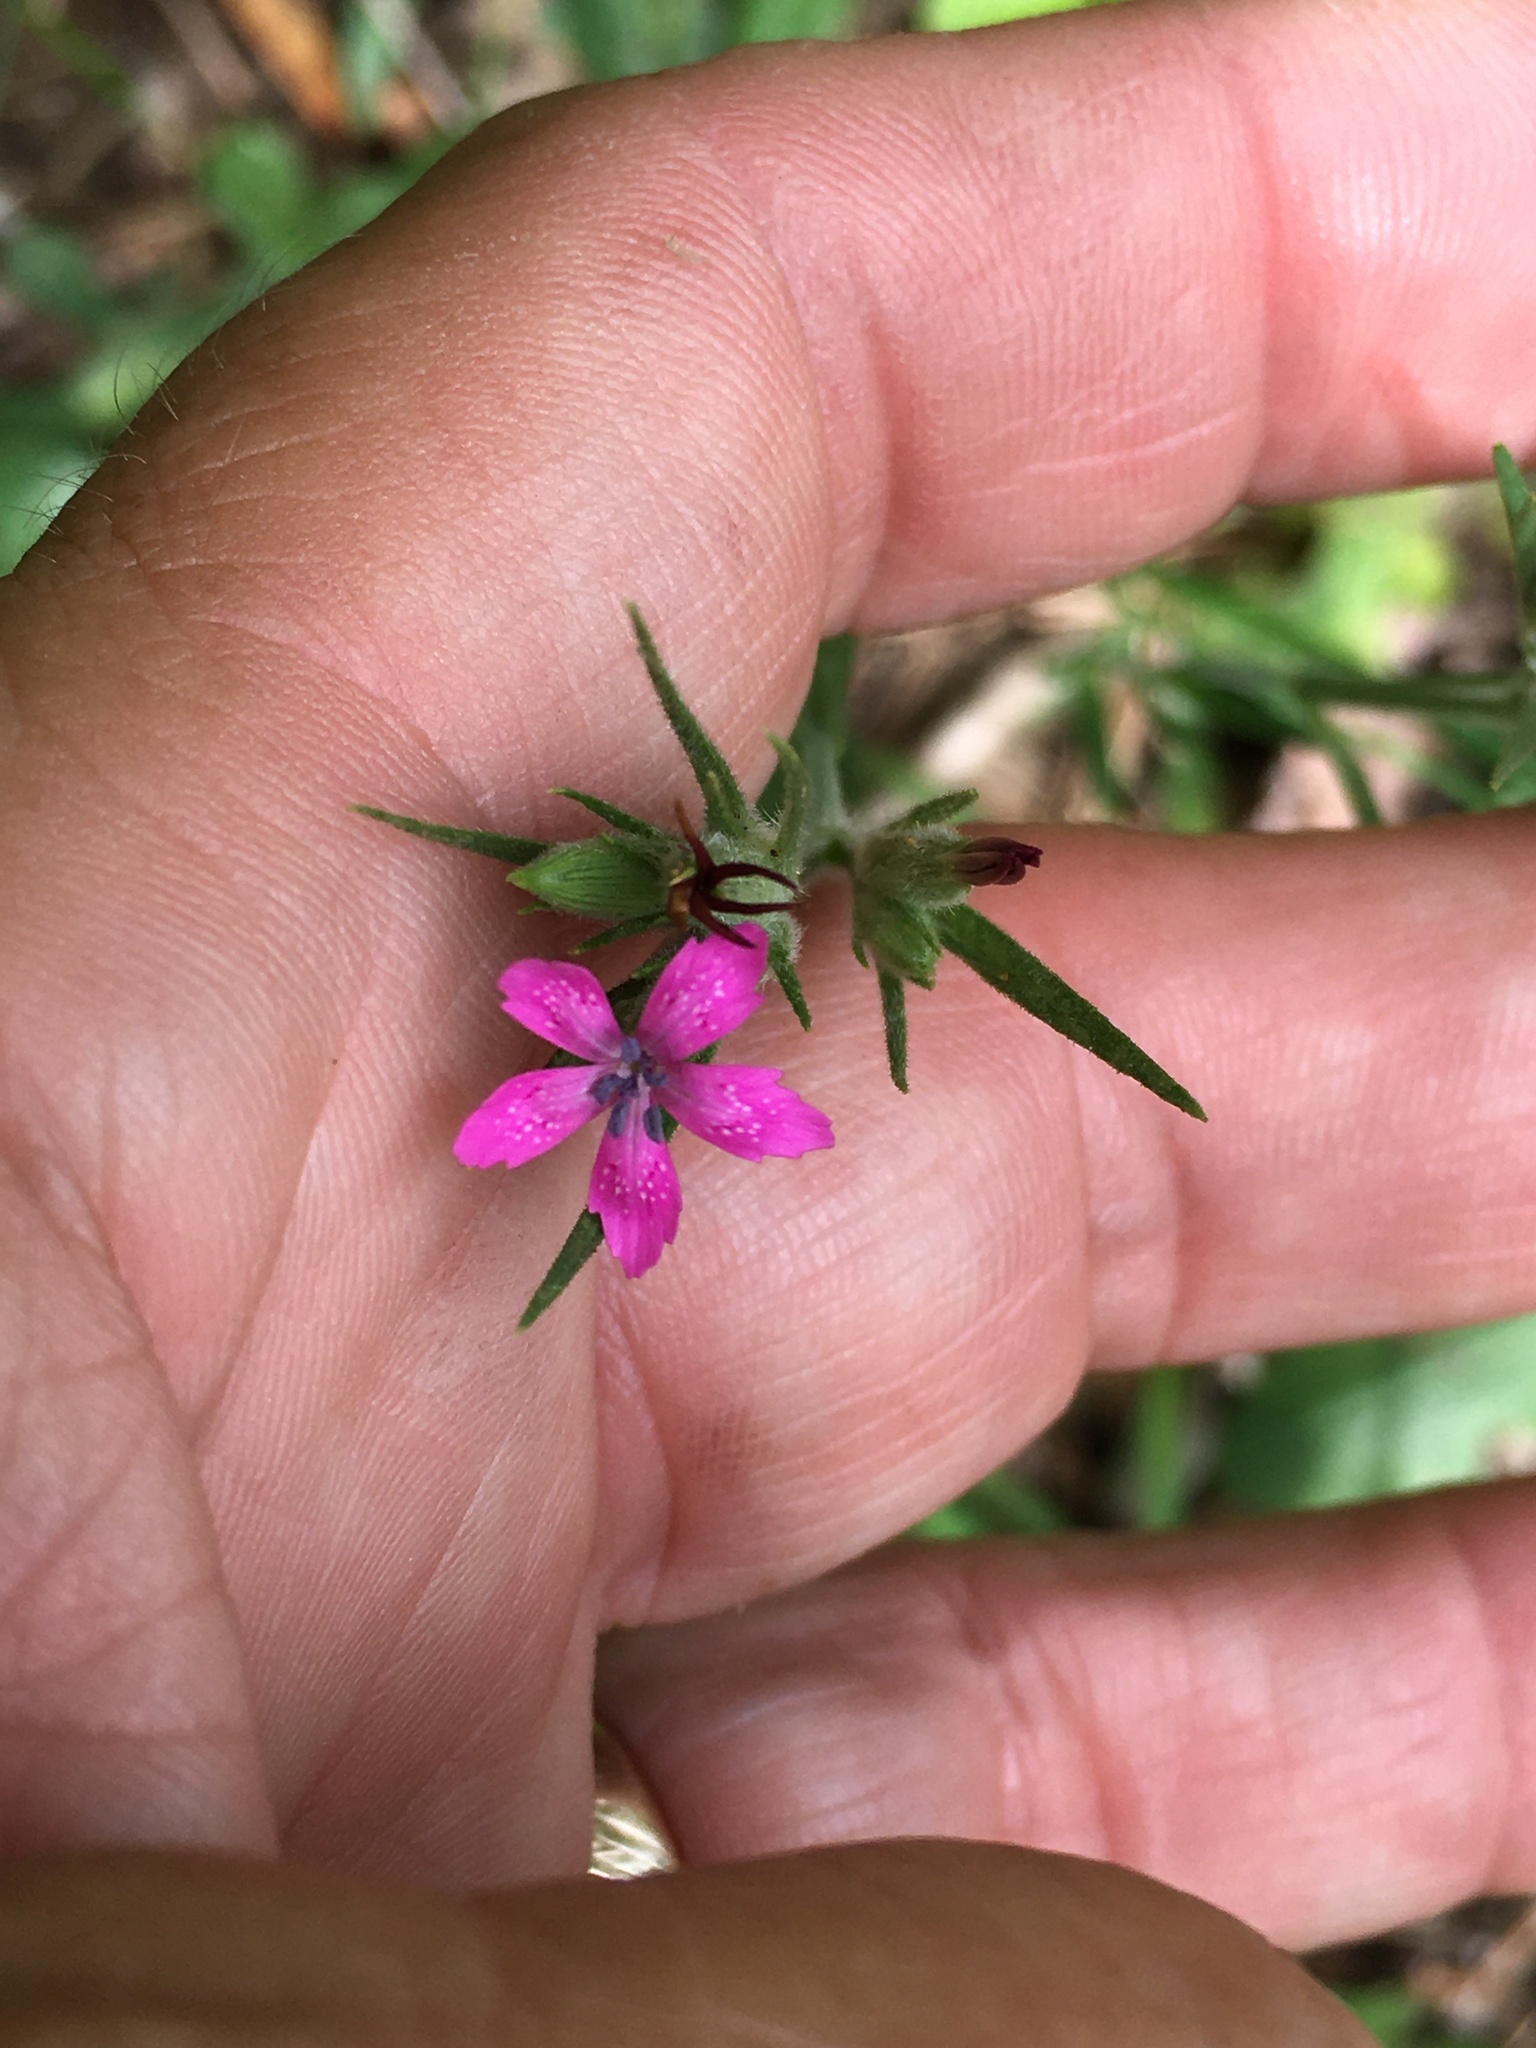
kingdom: Plantae
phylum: Tracheophyta
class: Magnoliopsida
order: Caryophyllales
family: Caryophyllaceae
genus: Dianthus
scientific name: Dianthus armeria
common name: Deptford pink
